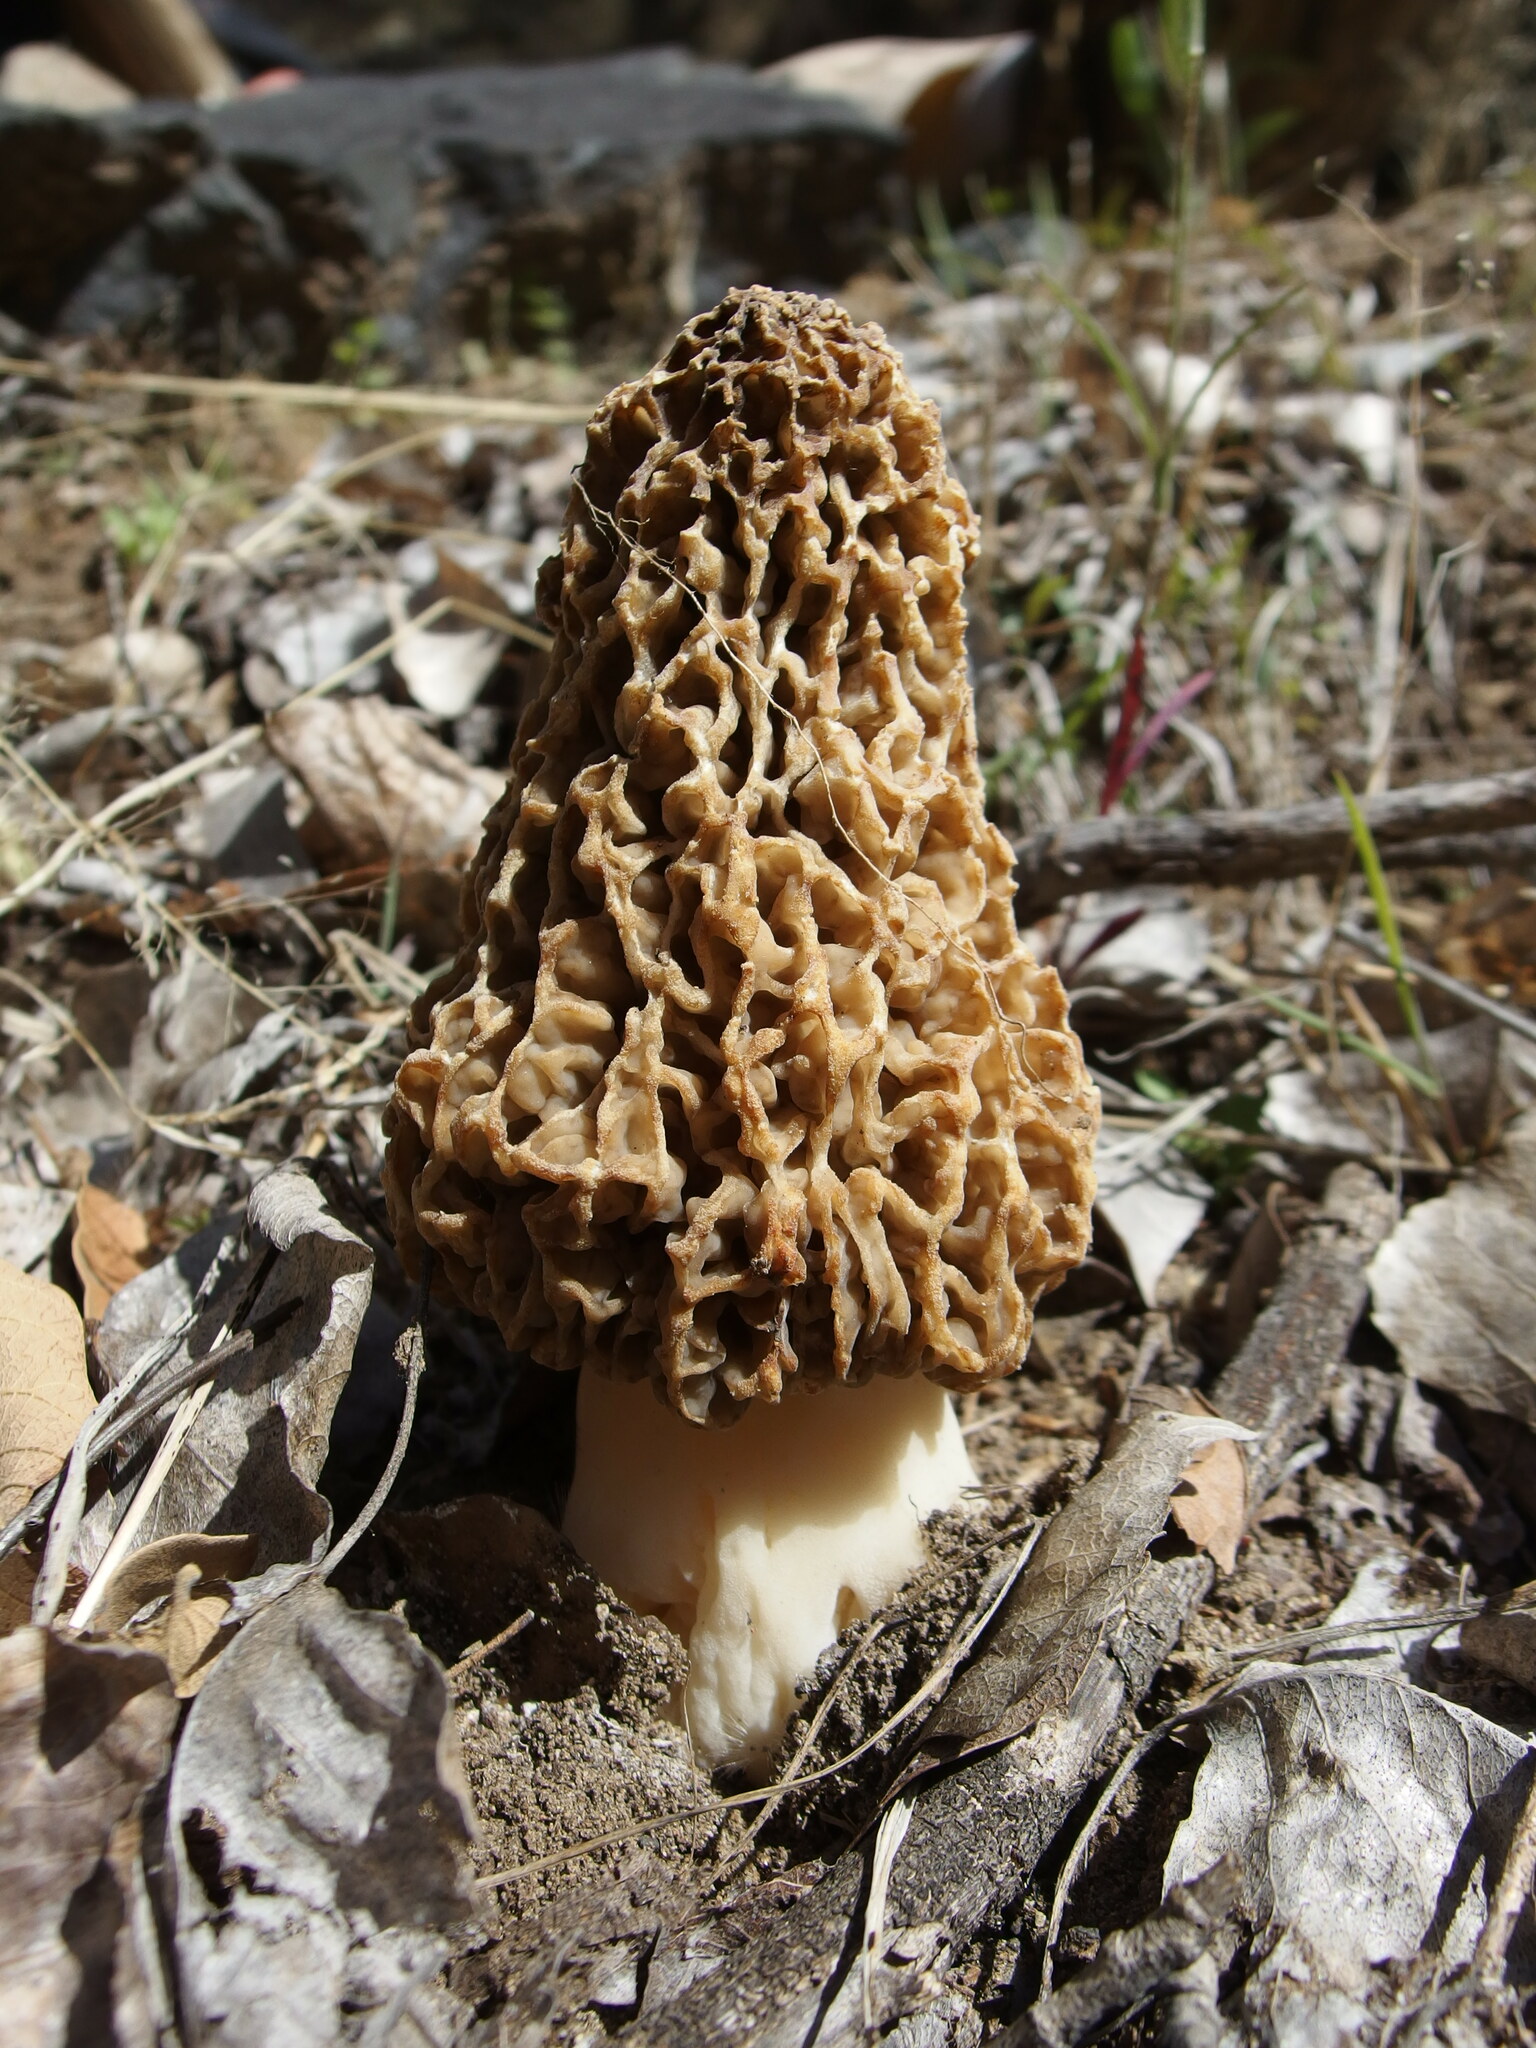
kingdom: Fungi
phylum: Ascomycota
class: Pezizomycetes
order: Pezizales
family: Morchellaceae
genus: Morchella
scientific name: Morchella americana
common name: White morel
